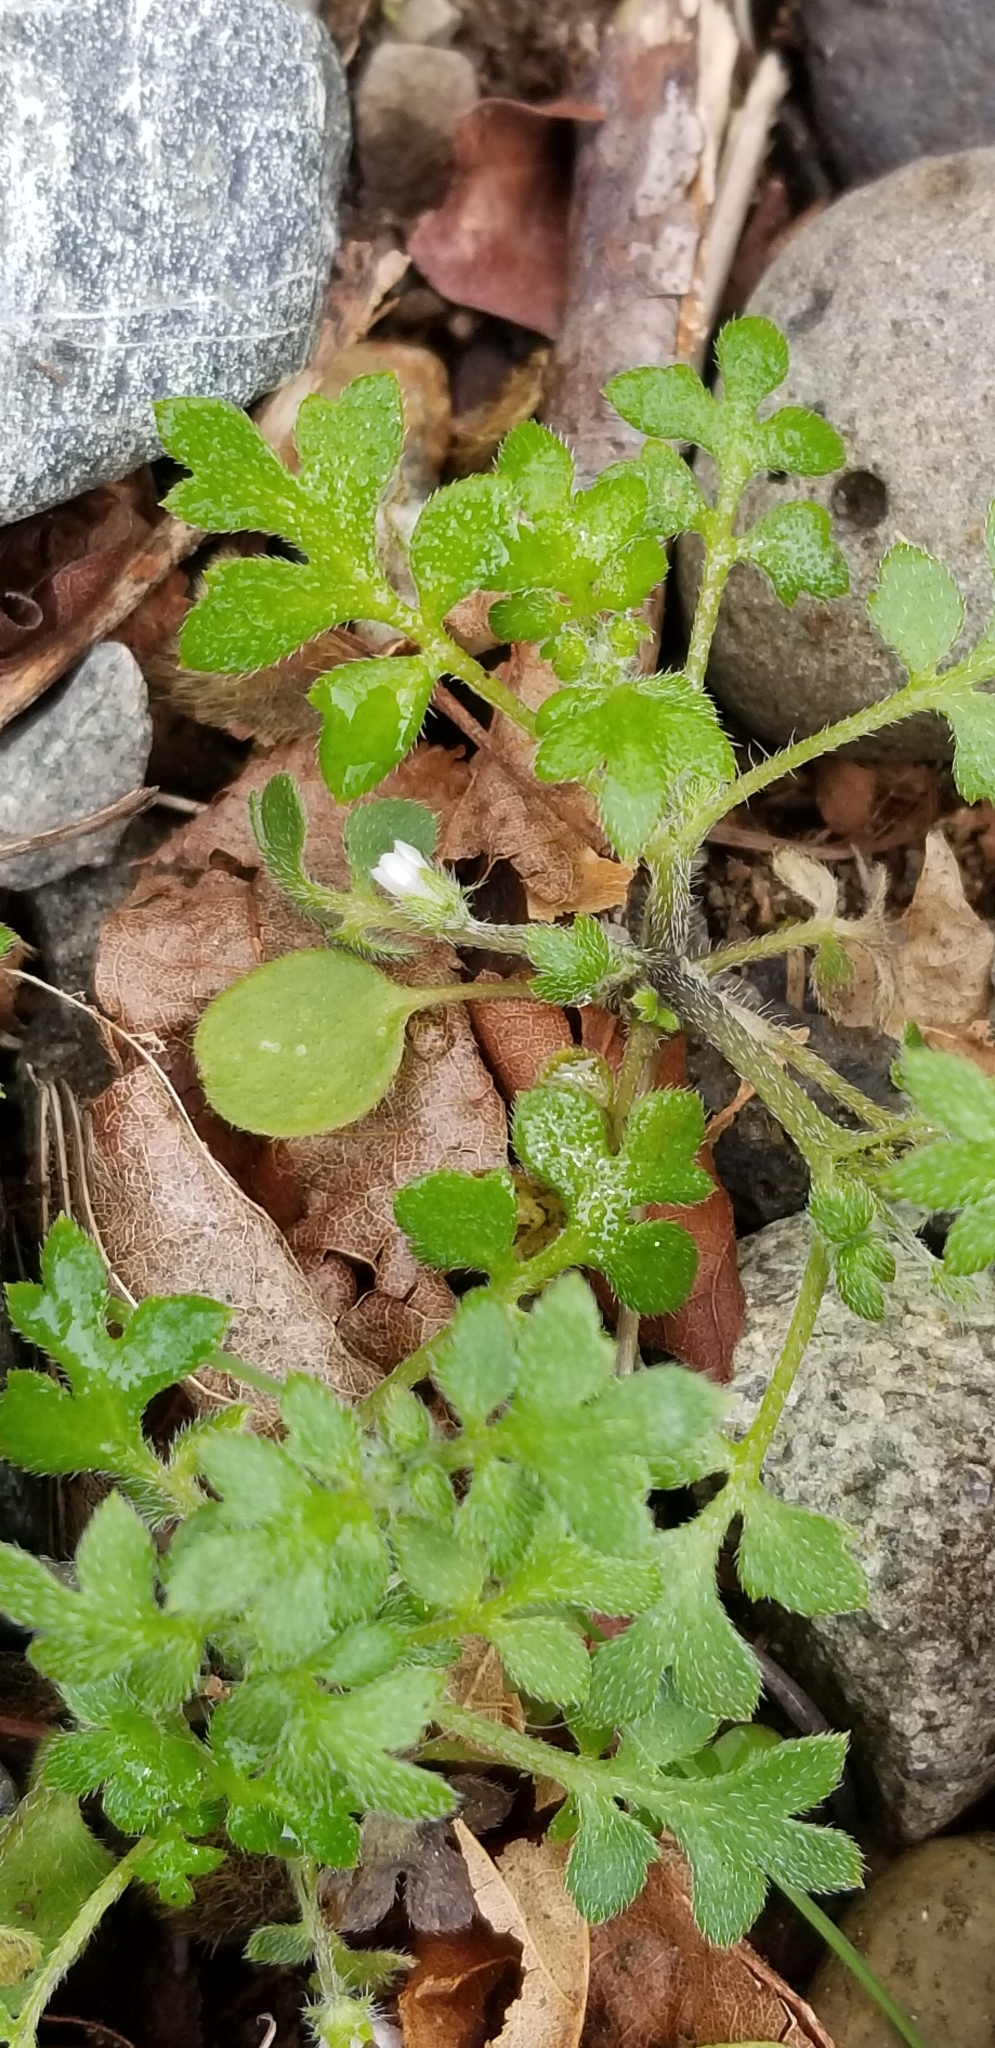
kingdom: Plantae
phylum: Tracheophyta
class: Magnoliopsida
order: Boraginales
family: Hydrophyllaceae
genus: Nemophila
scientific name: Nemophila parviflora
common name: Small-flowered baby-blue-eyes
